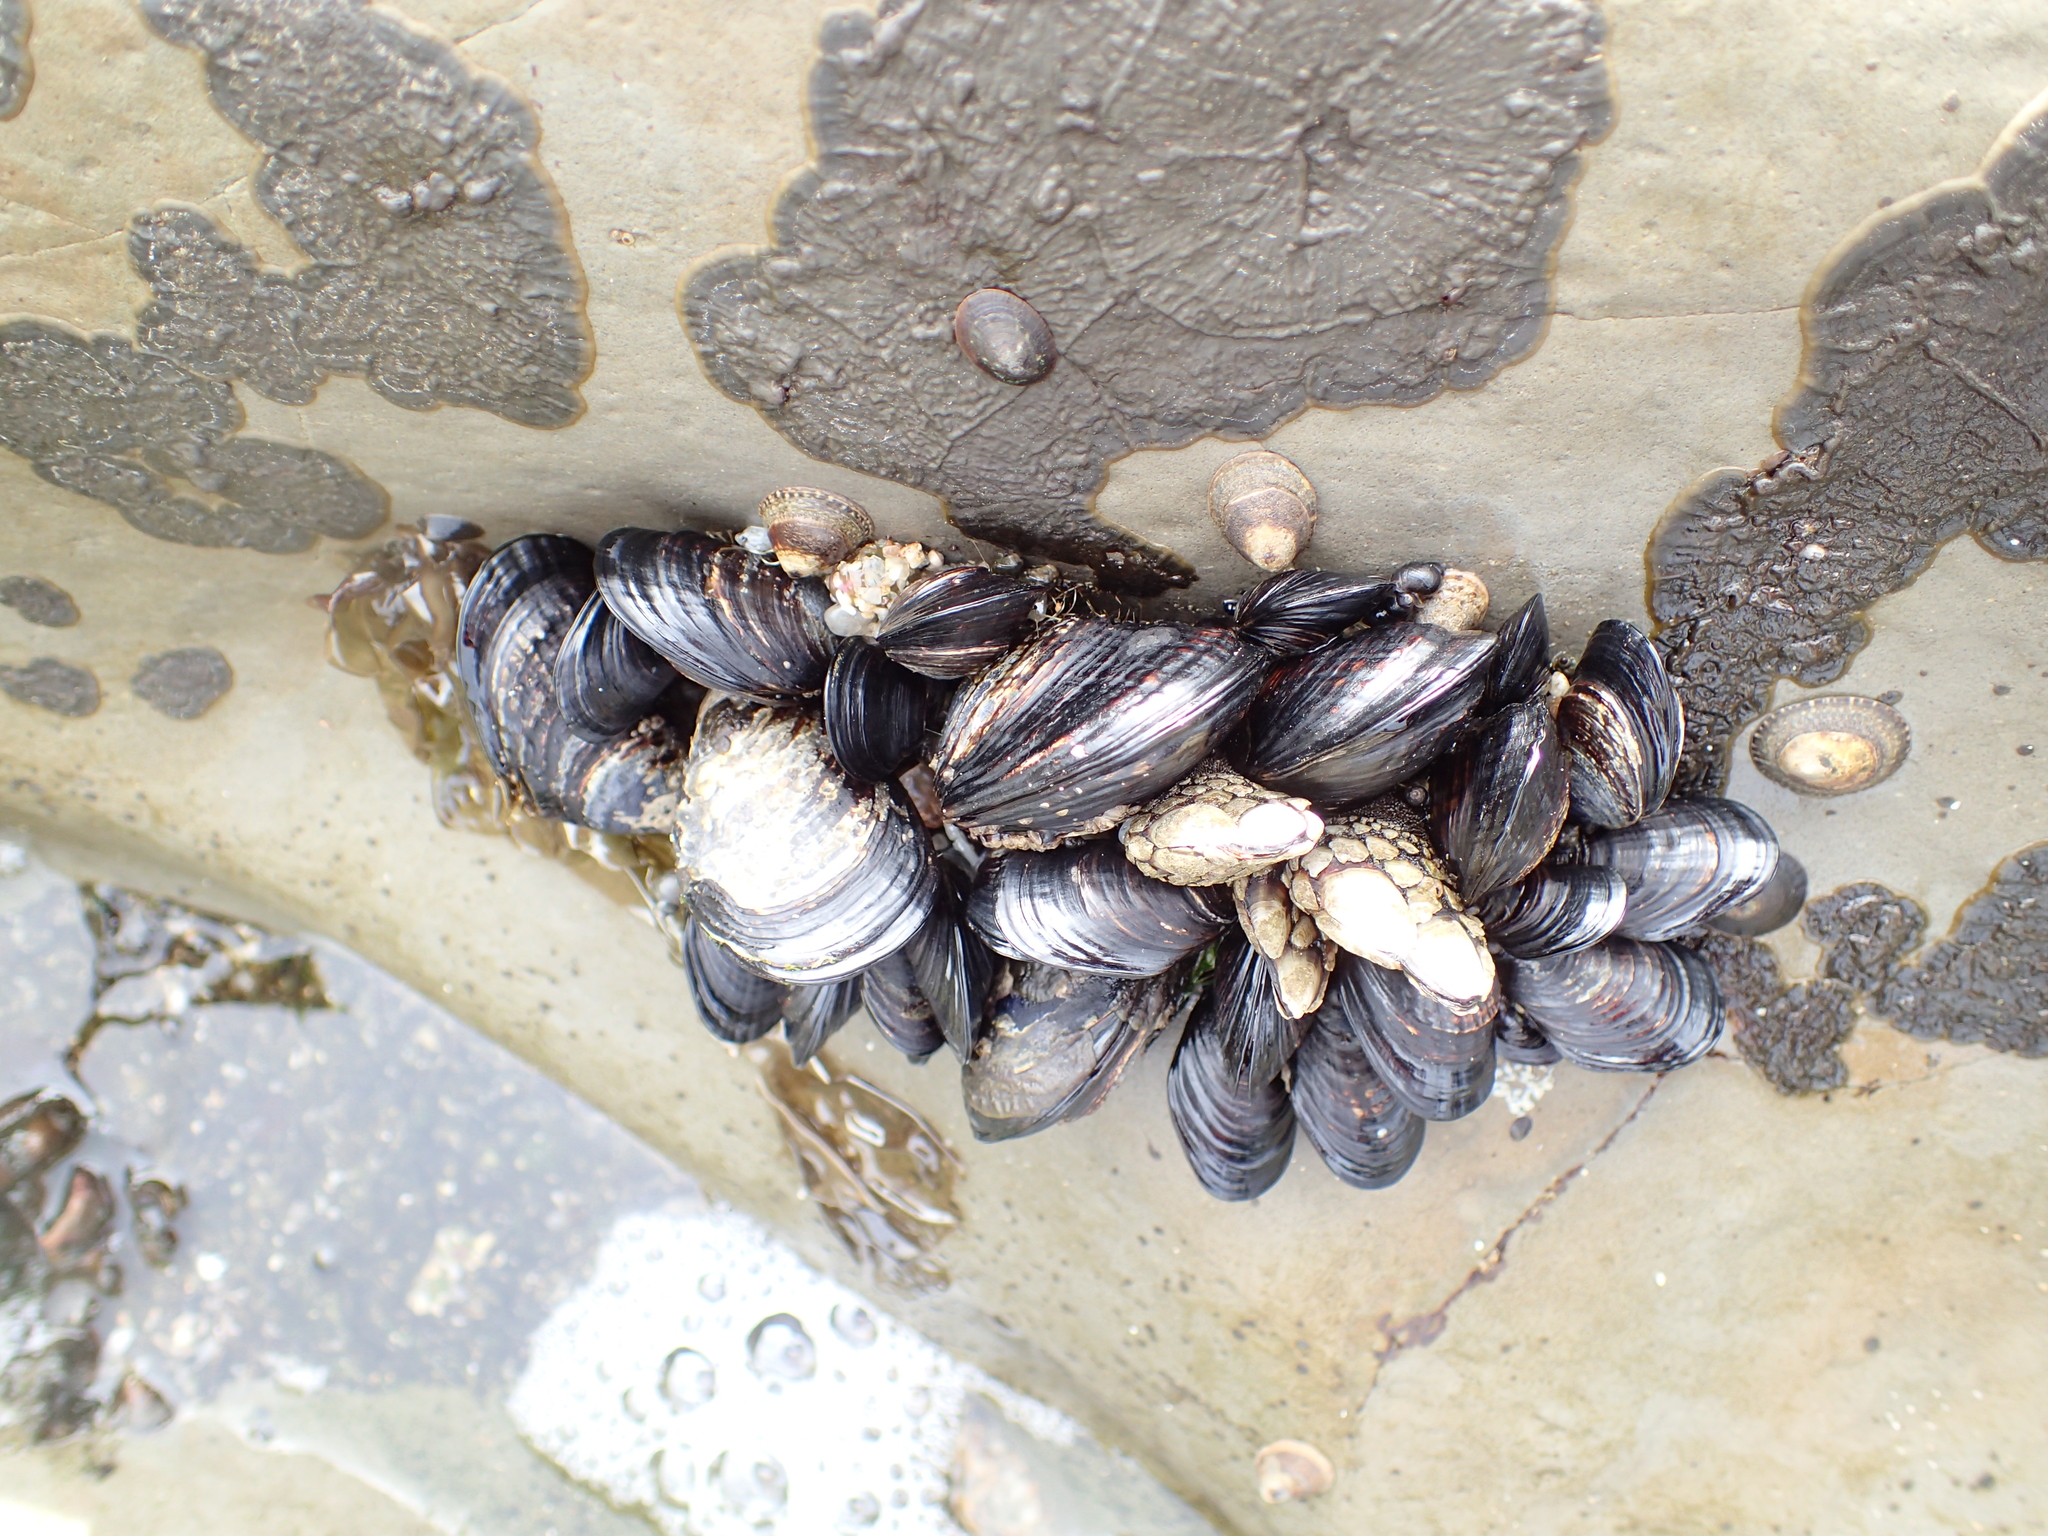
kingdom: Animalia
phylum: Mollusca
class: Bivalvia
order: Mytilida
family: Mytilidae
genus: Mytilus
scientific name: Mytilus californianus
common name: California mussel
